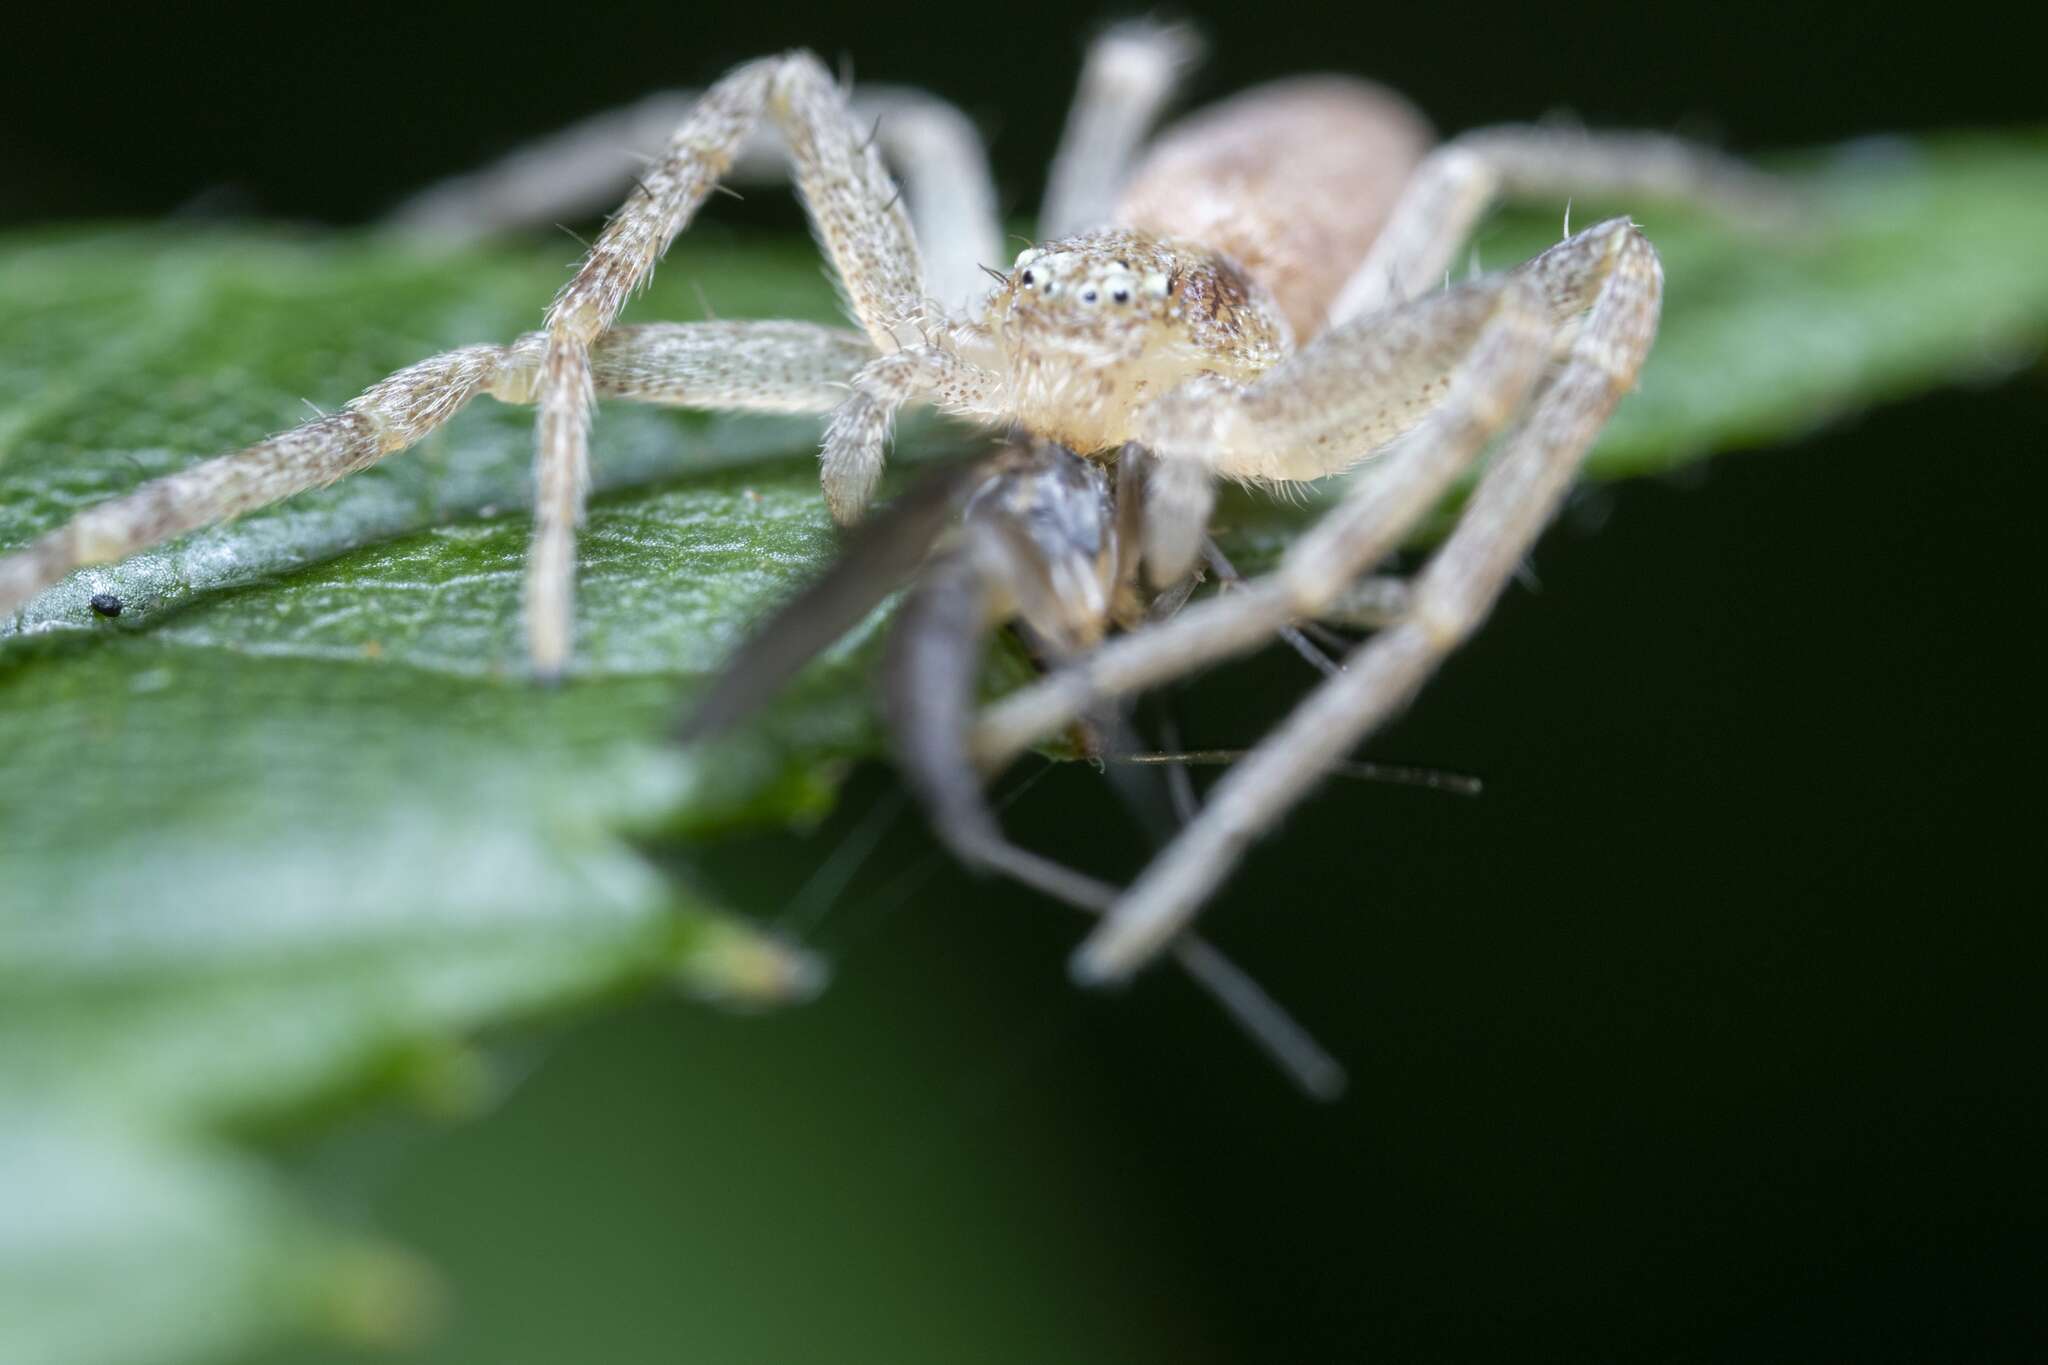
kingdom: Animalia
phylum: Arthropoda
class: Arachnida
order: Araneae
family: Philodromidae
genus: Philodromus
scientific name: Philodromus
